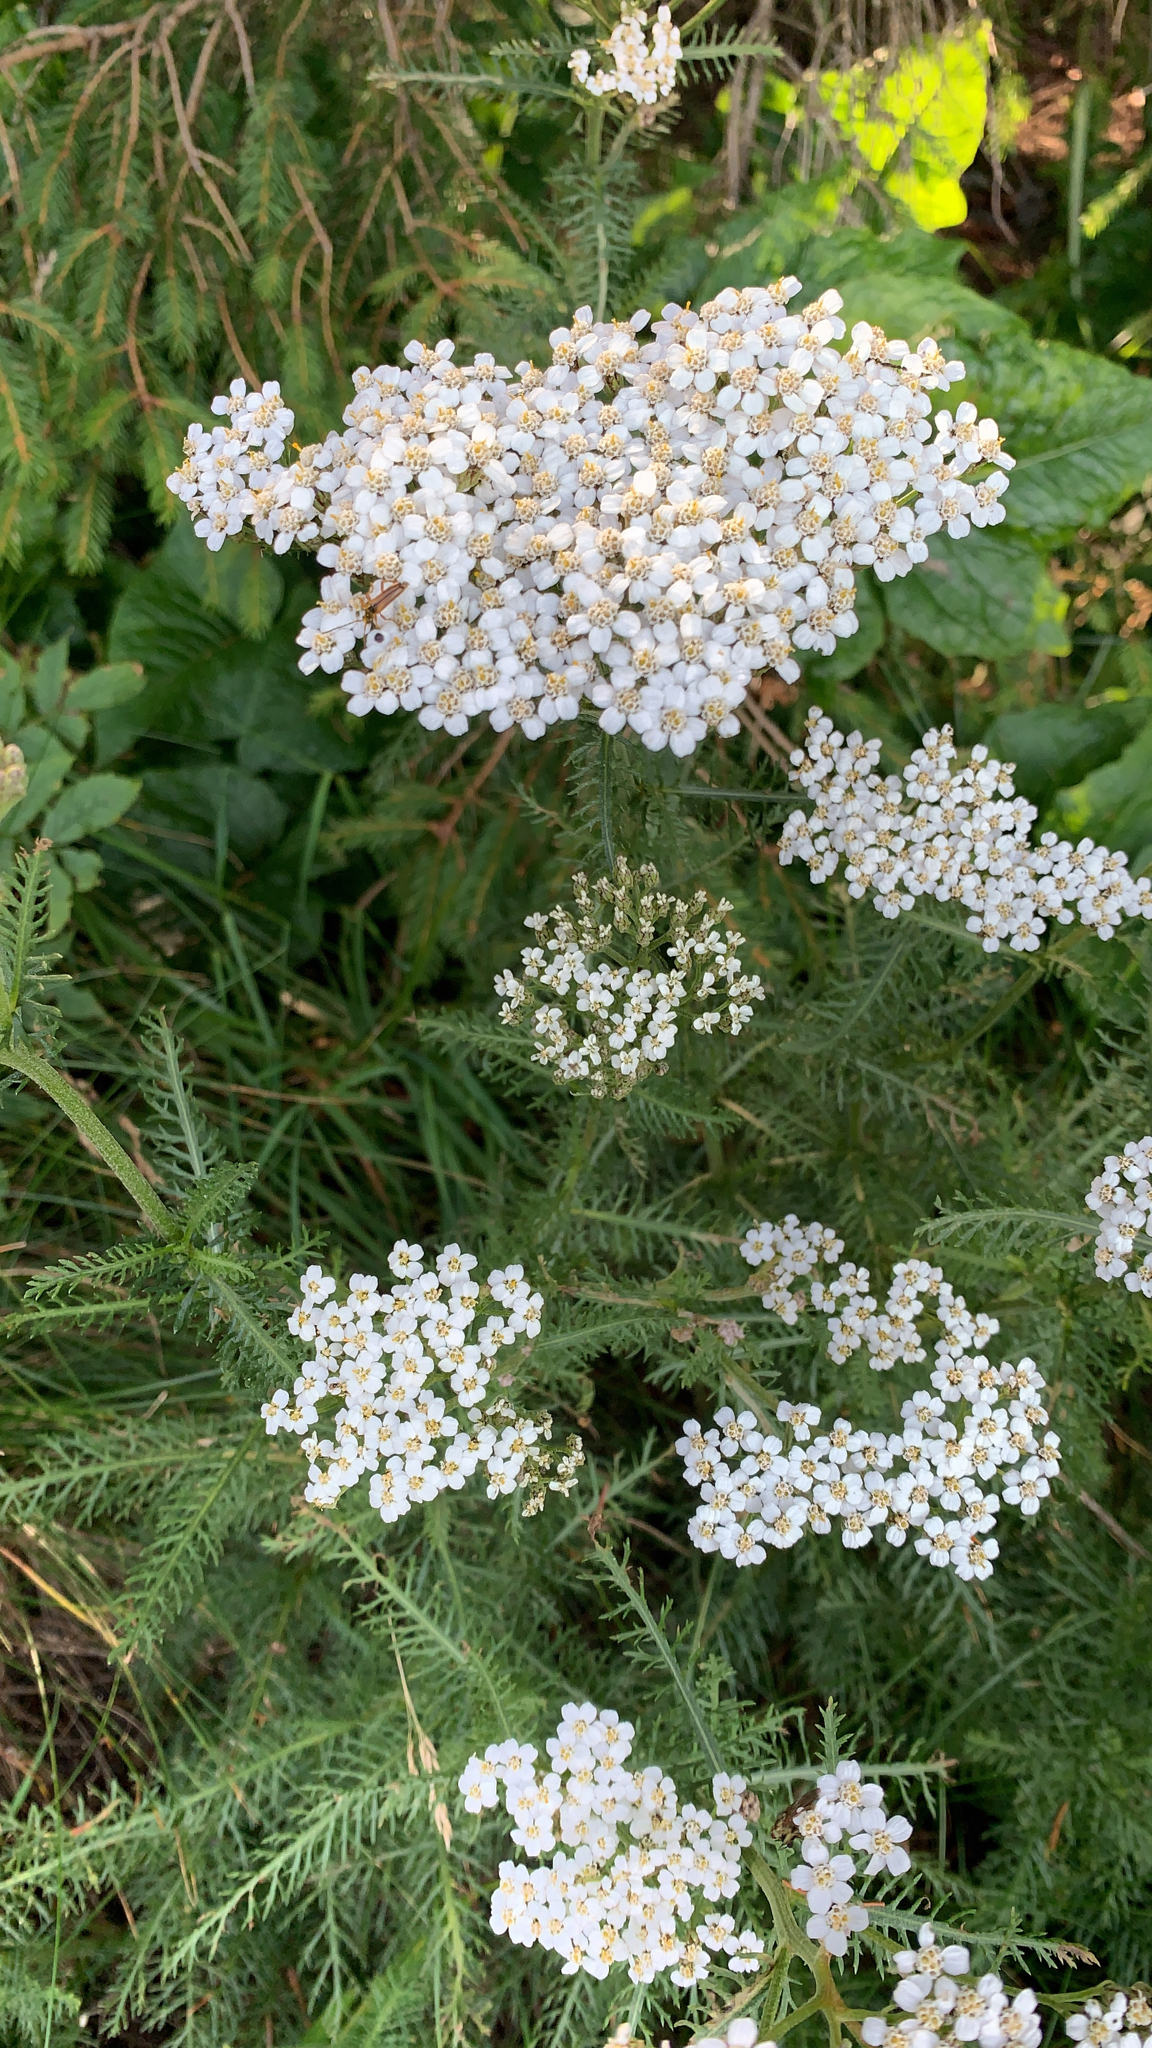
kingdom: Plantae
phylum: Tracheophyta
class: Magnoliopsida
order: Asterales
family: Asteraceae
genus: Achillea
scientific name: Achillea millefolium
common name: Yarrow
